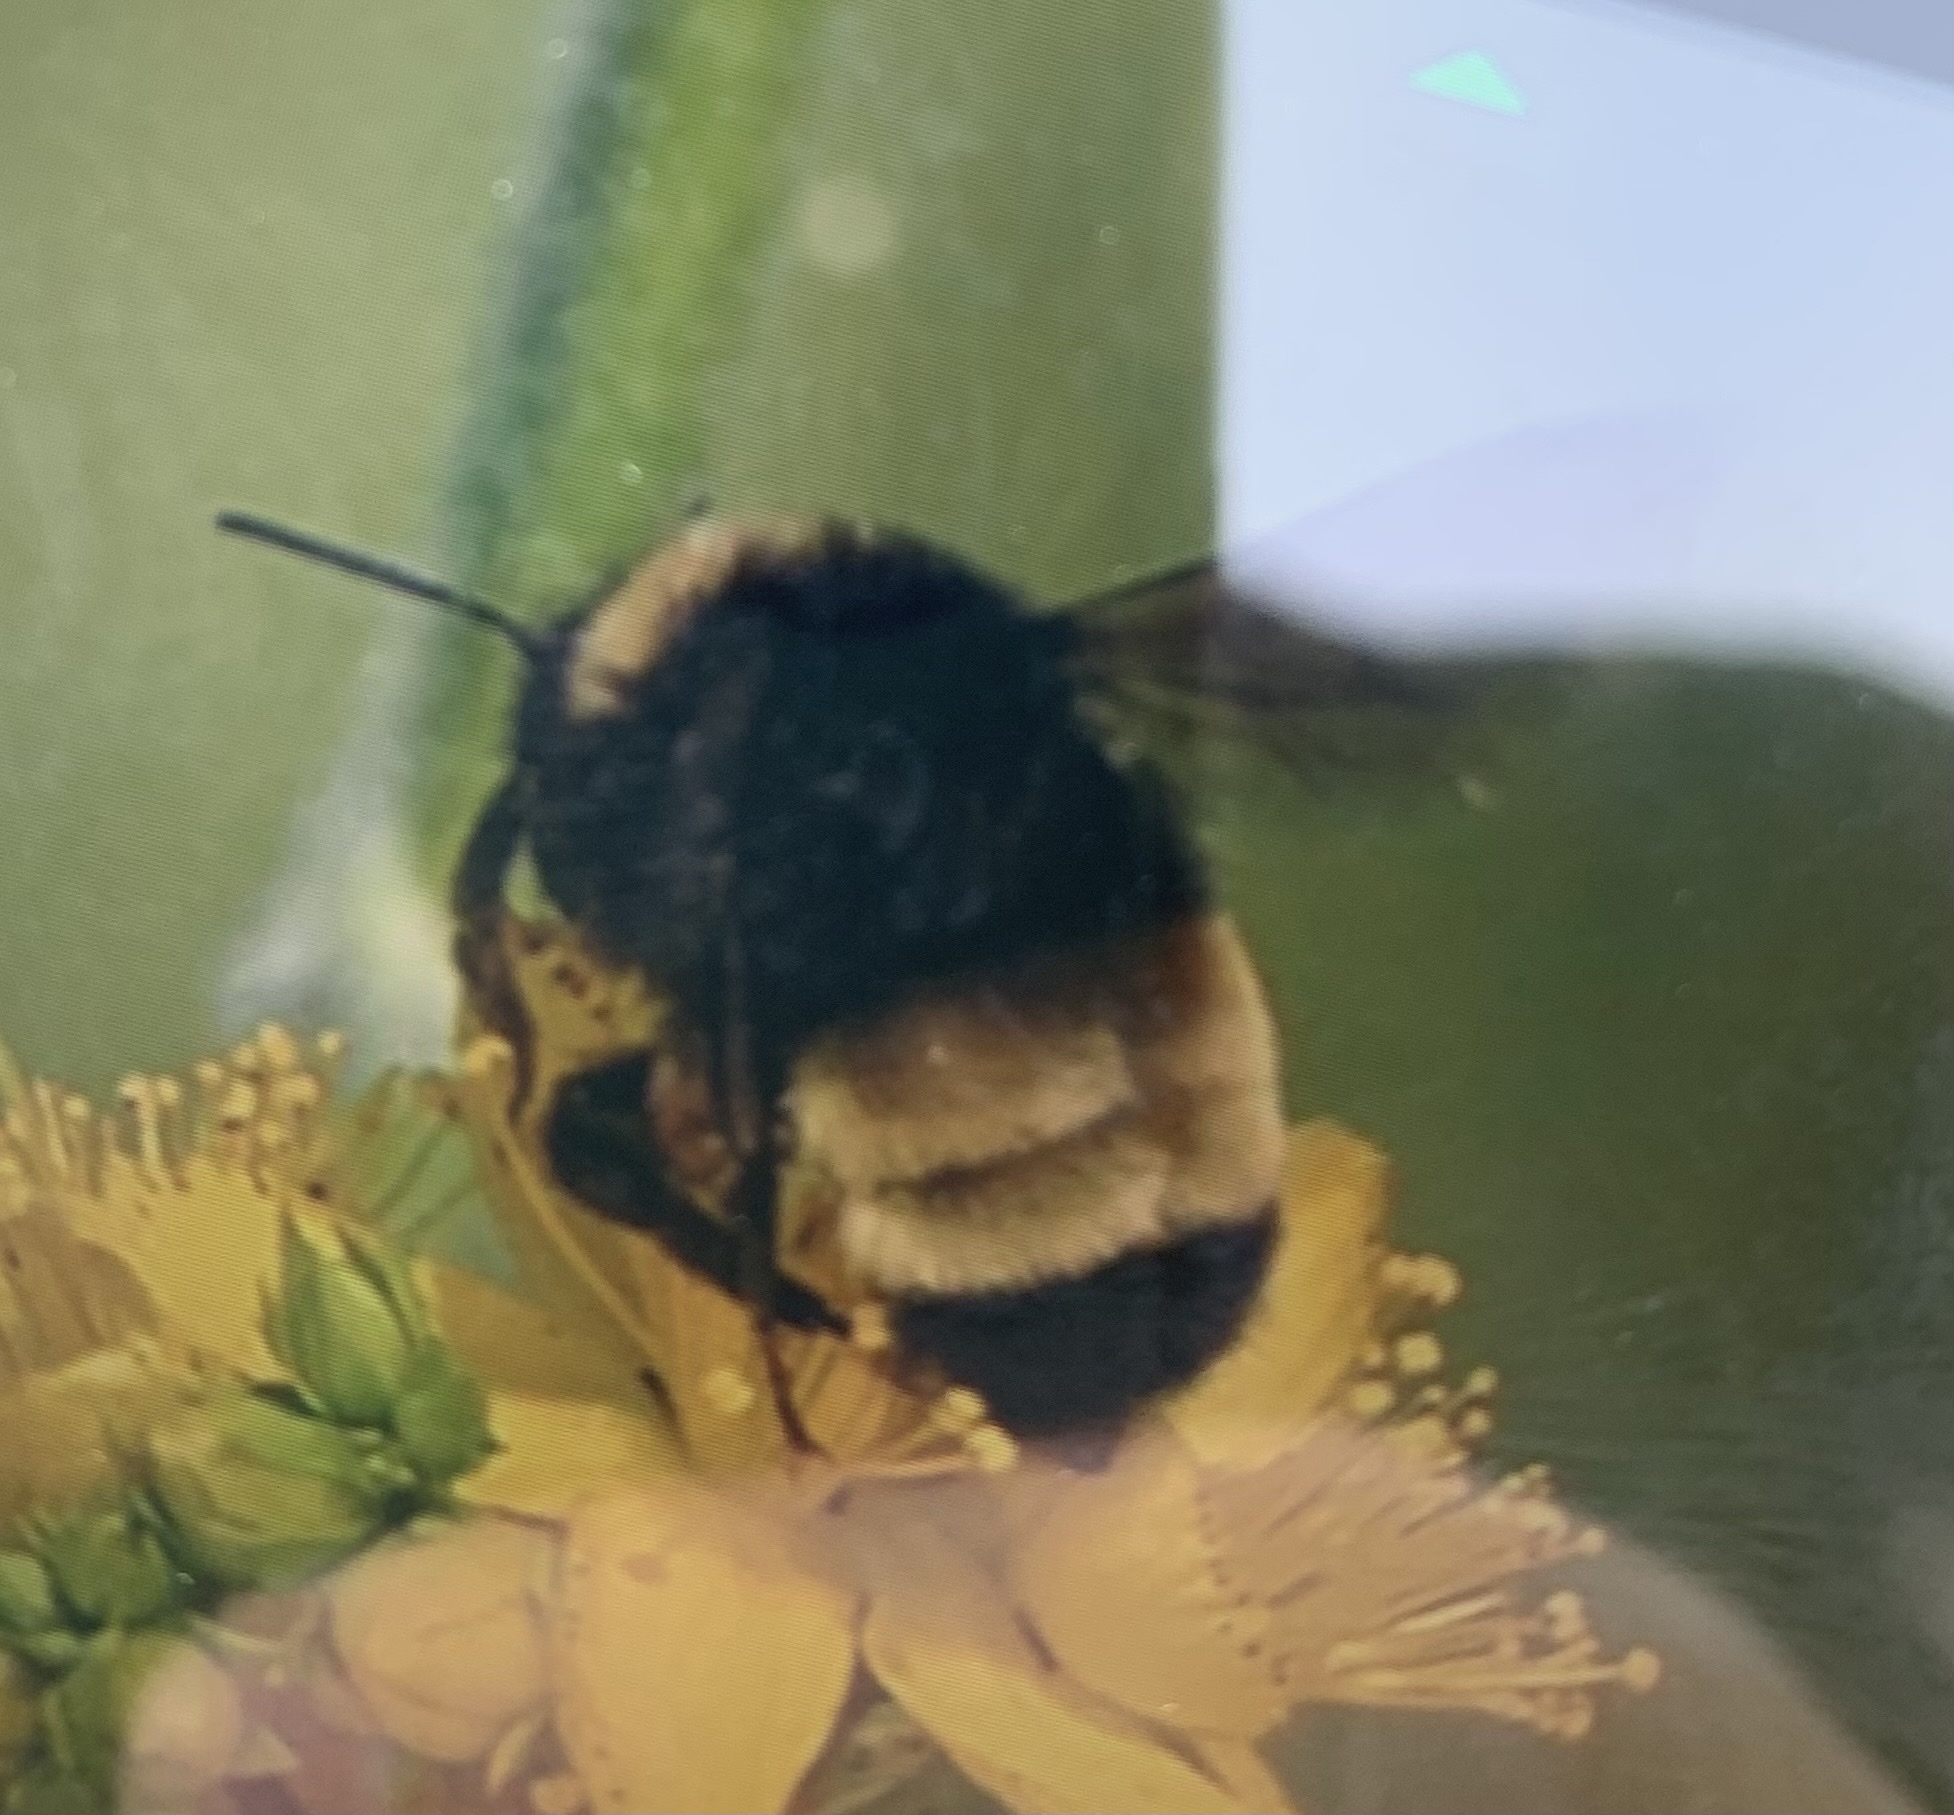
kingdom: Animalia
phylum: Arthropoda
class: Insecta
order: Hymenoptera
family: Apidae
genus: Bombus
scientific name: Bombus terricola
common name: Yellow-banded bumble bee
